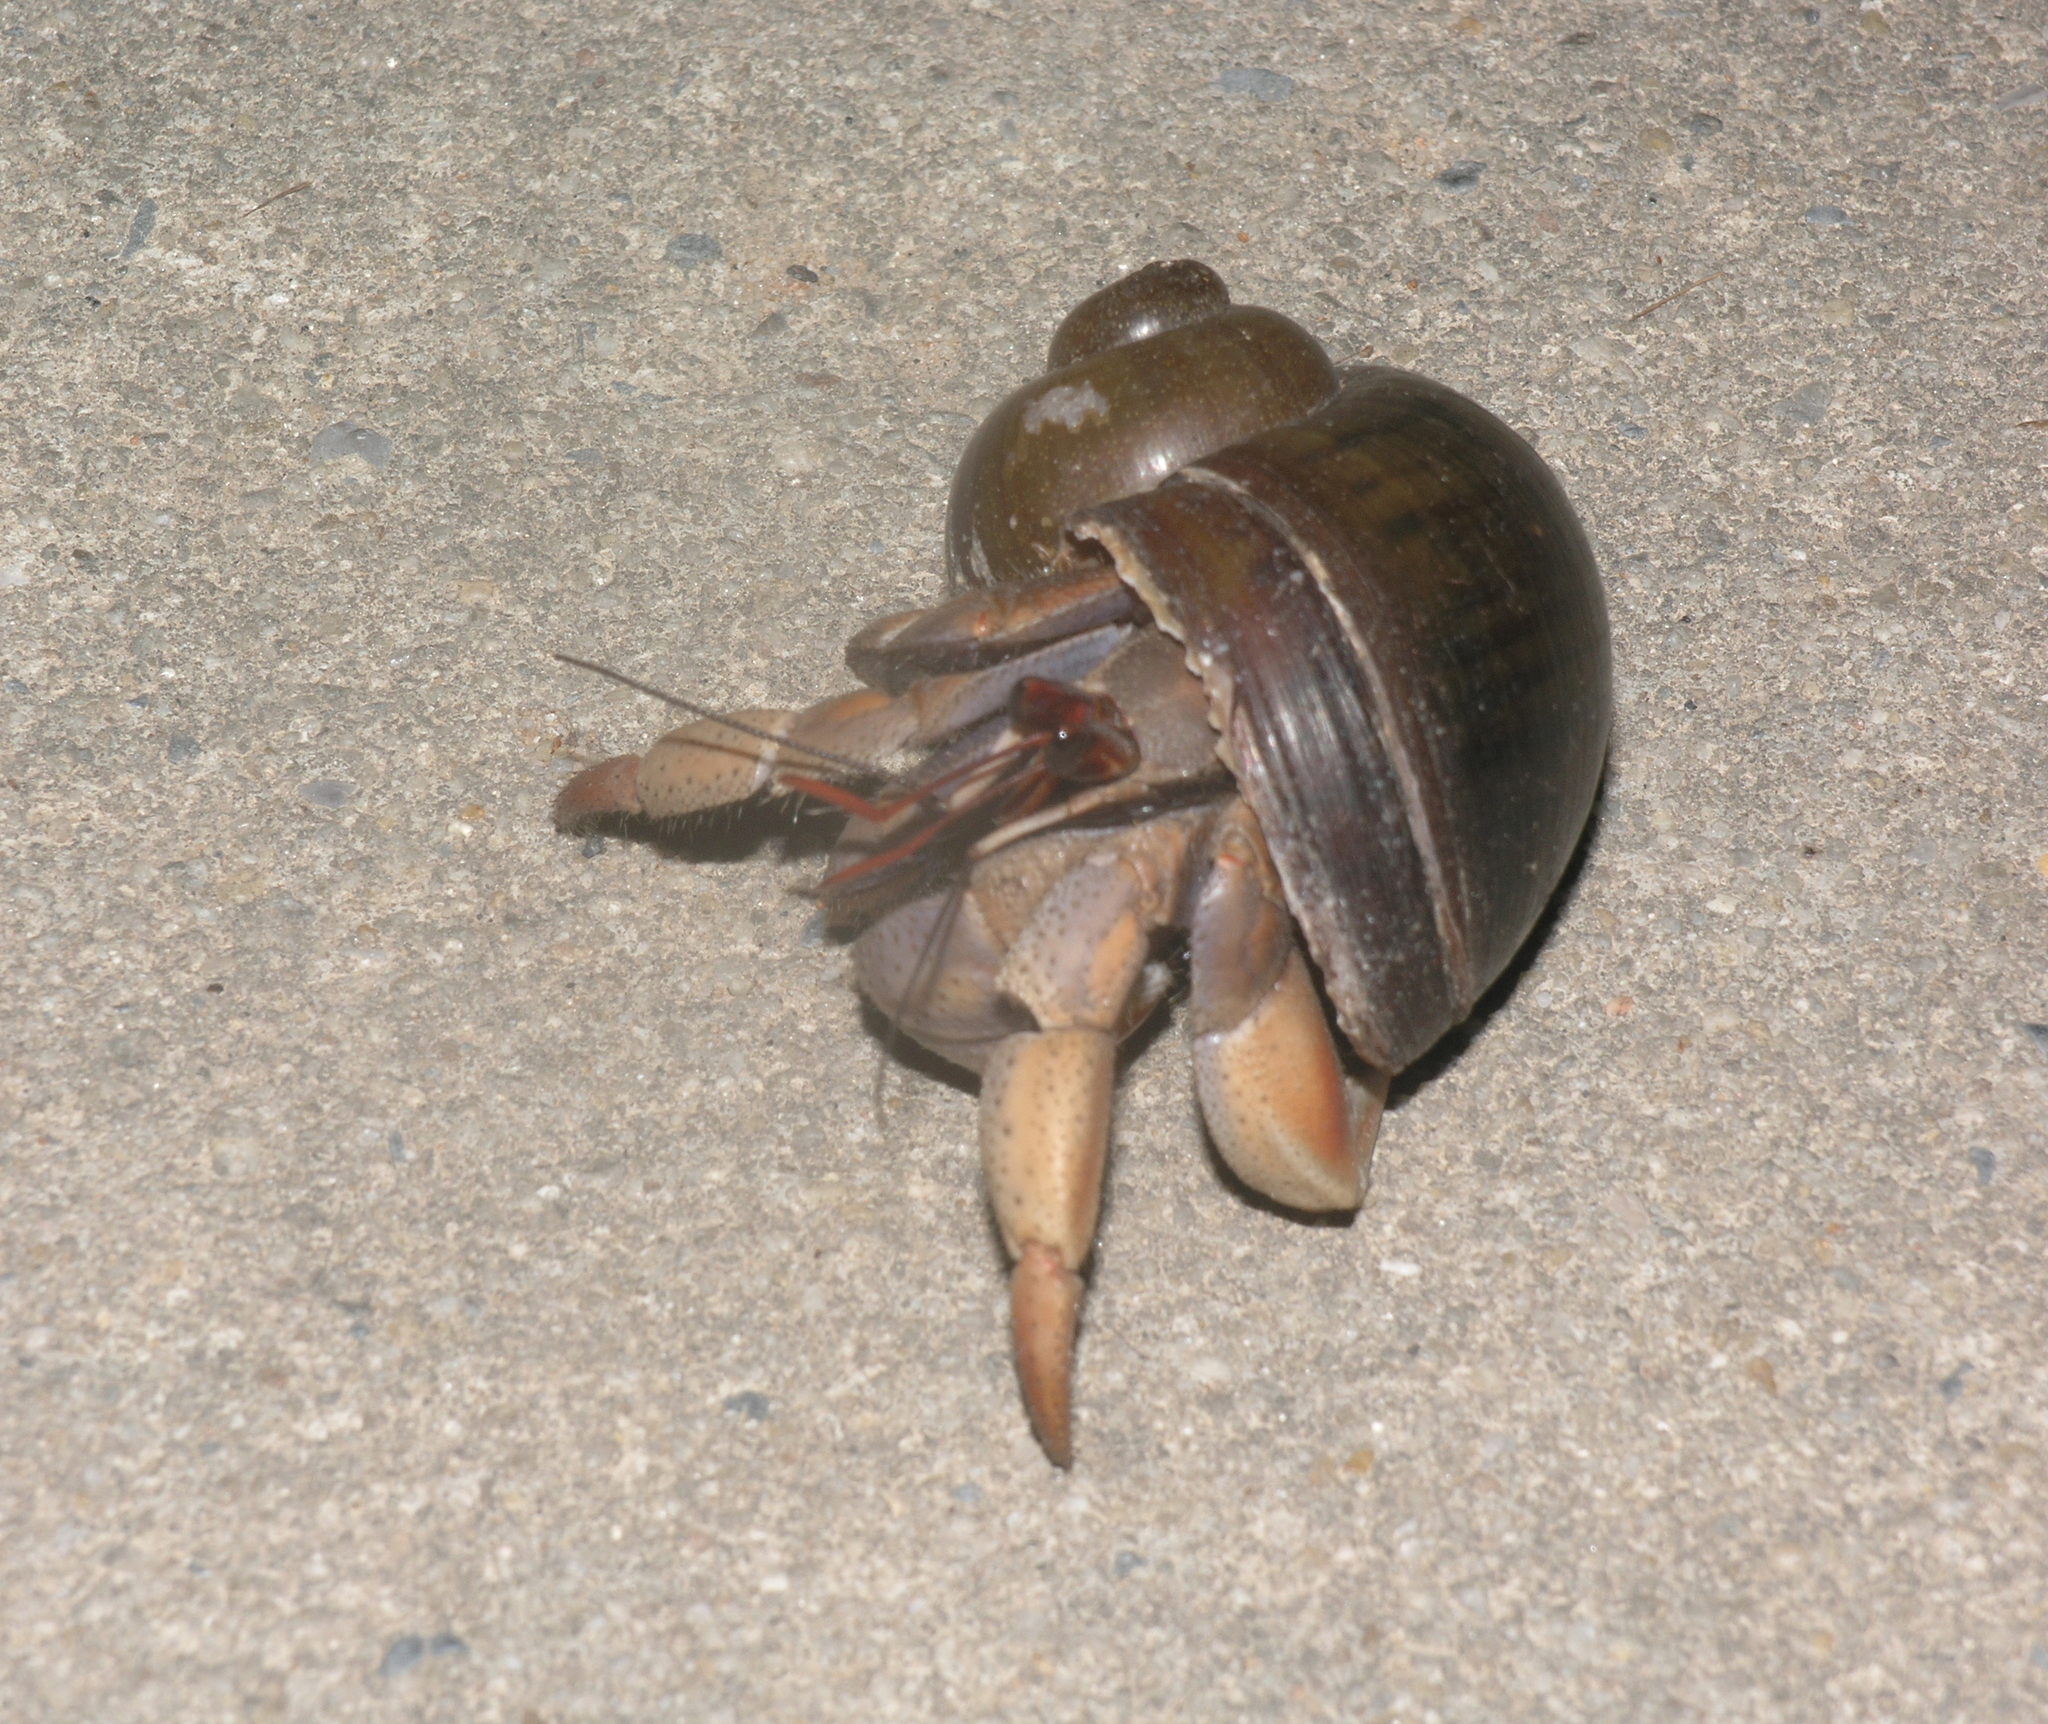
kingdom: Animalia
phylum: Arthropoda
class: Malacostraca
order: Decapoda
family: Coenobitidae
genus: Coenobita
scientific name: Coenobita violascens
